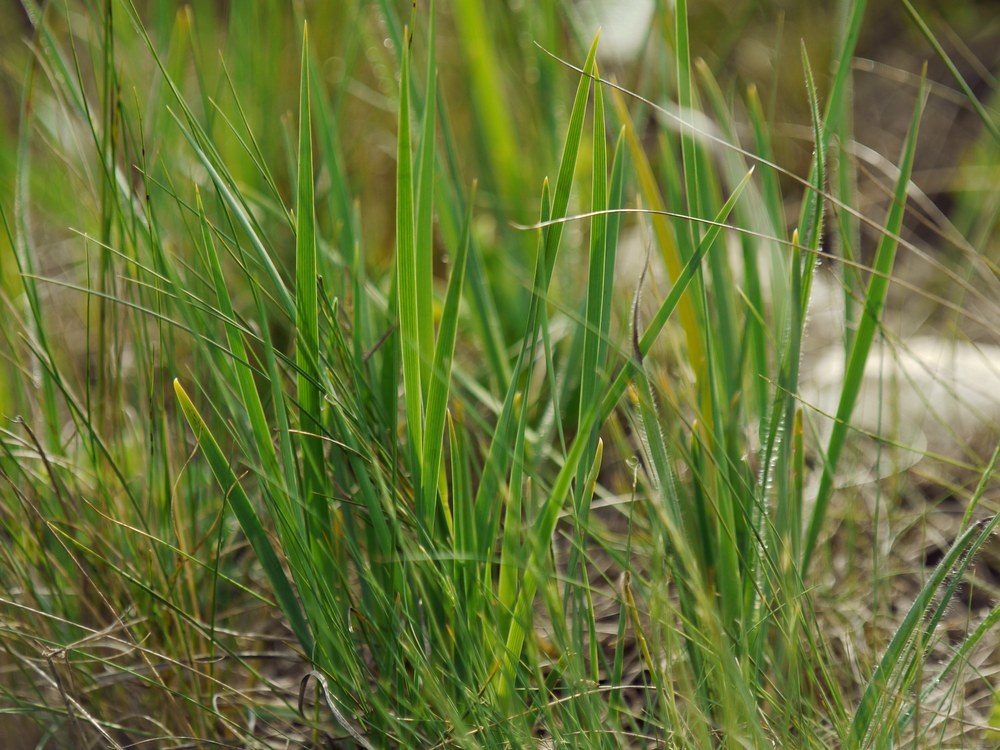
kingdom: Plantae
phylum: Tracheophyta
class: Liliopsida
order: Asparagales
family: Iridaceae
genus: Iris
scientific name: Iris pontica
